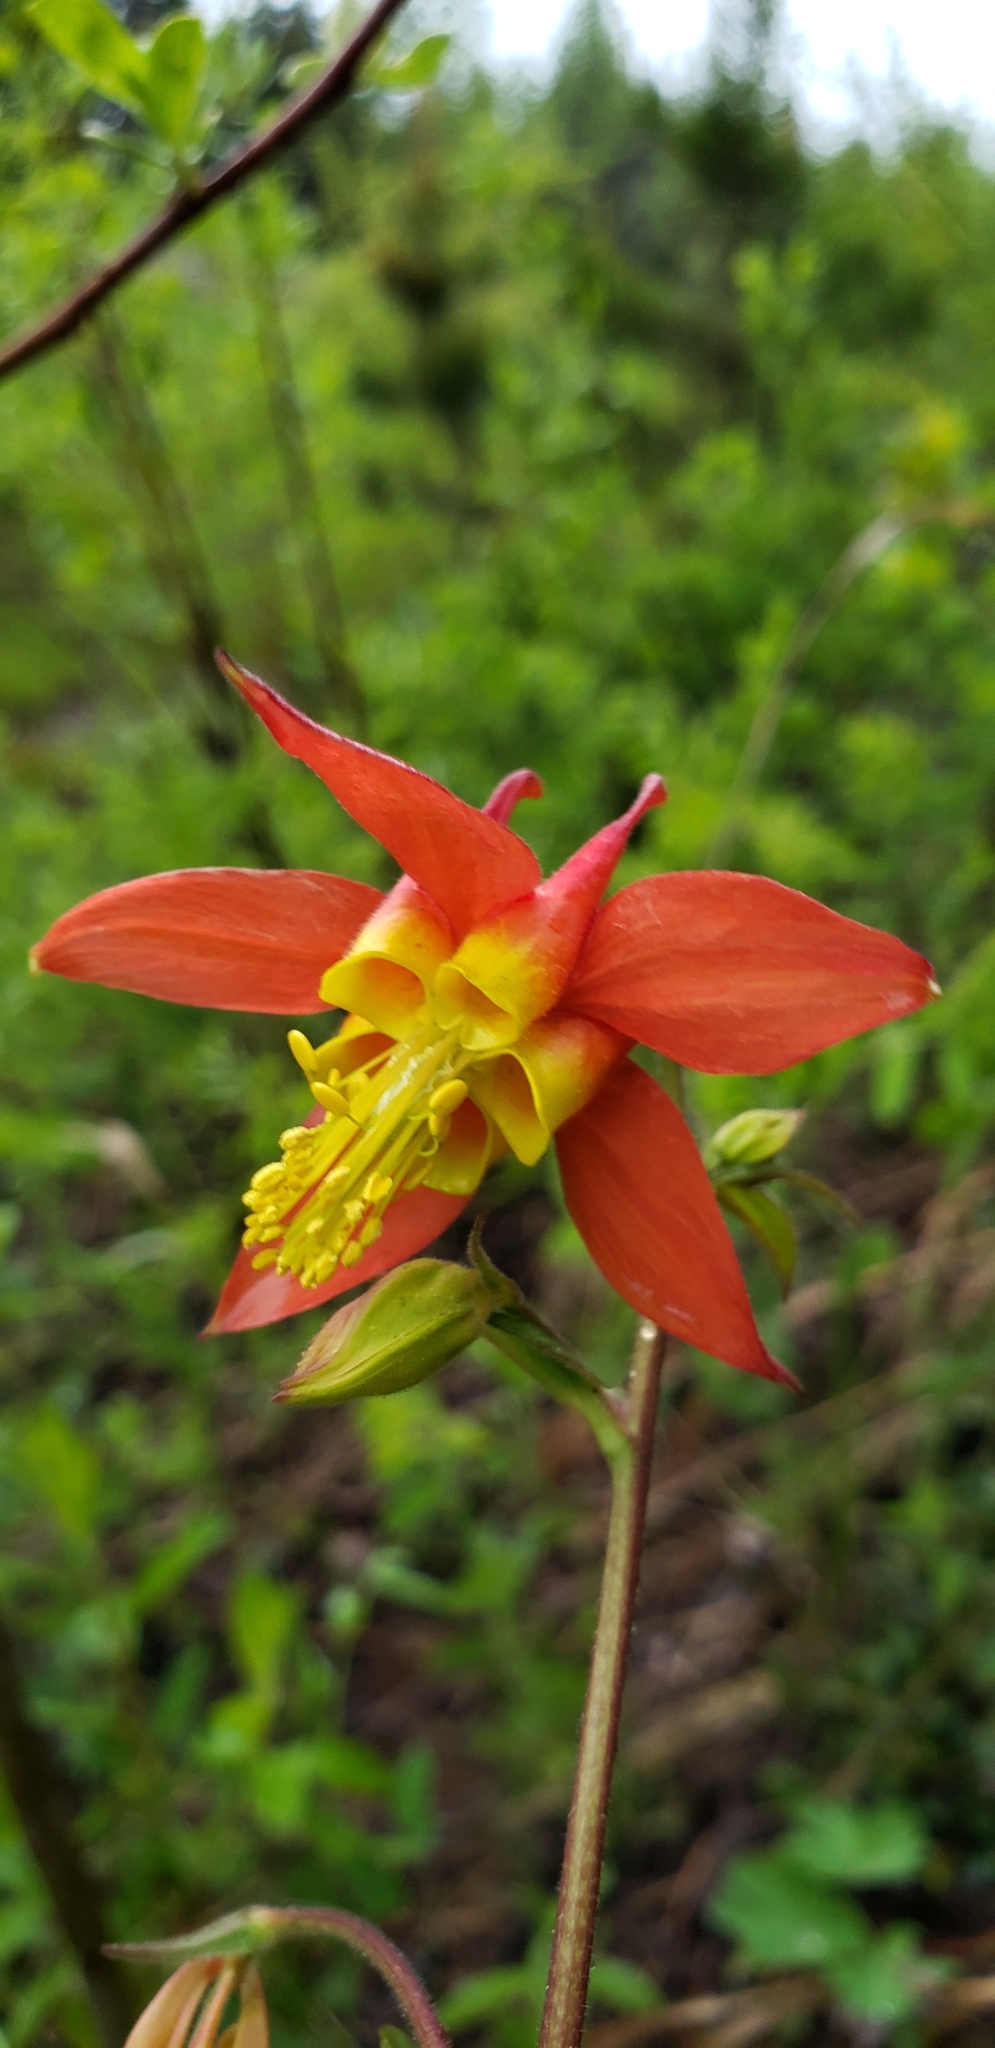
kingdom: Plantae
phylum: Tracheophyta
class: Magnoliopsida
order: Ranunculales
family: Ranunculaceae
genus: Aquilegia
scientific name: Aquilegia formosa
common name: Sitka columbine
